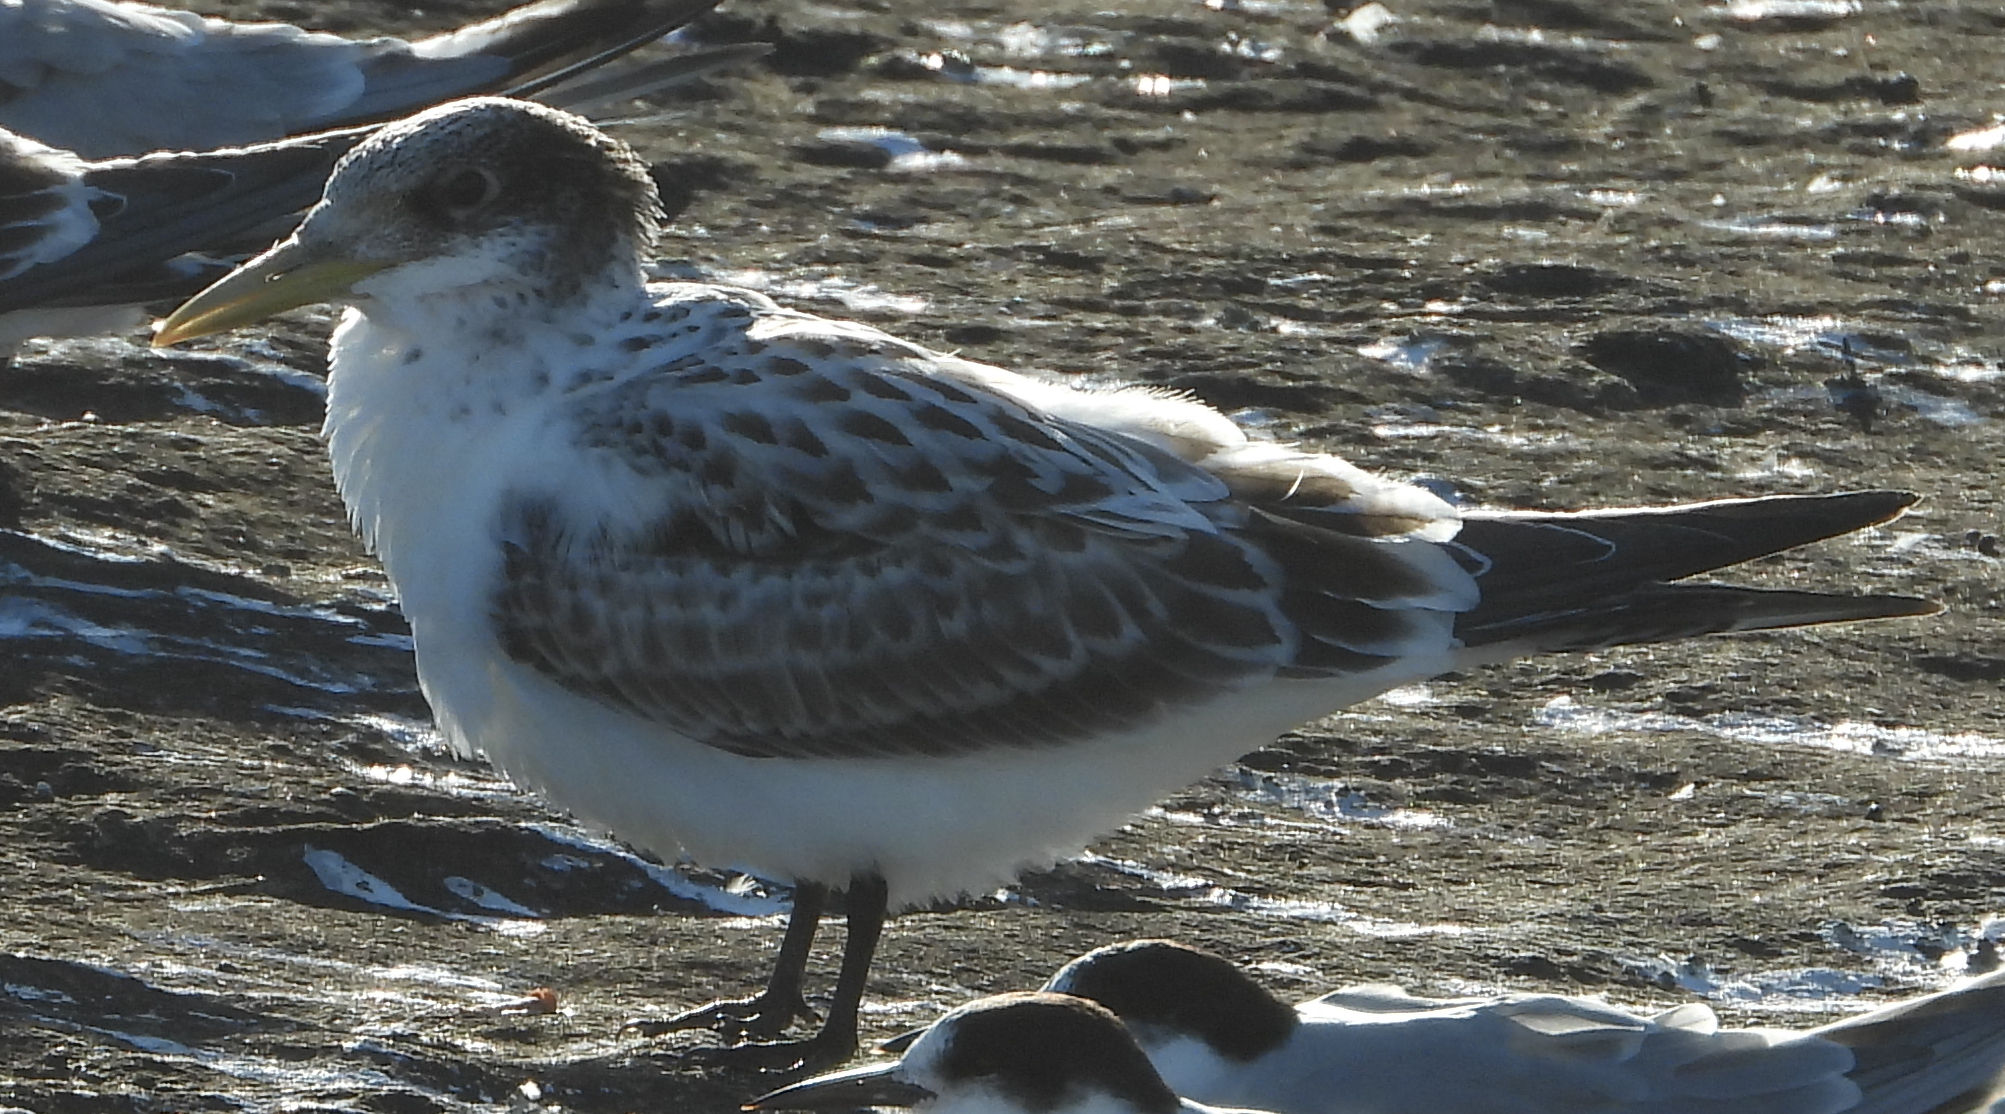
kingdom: Animalia
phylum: Chordata
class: Aves
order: Charadriiformes
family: Laridae
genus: Thalasseus
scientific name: Thalasseus bergii
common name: Greater crested tern
